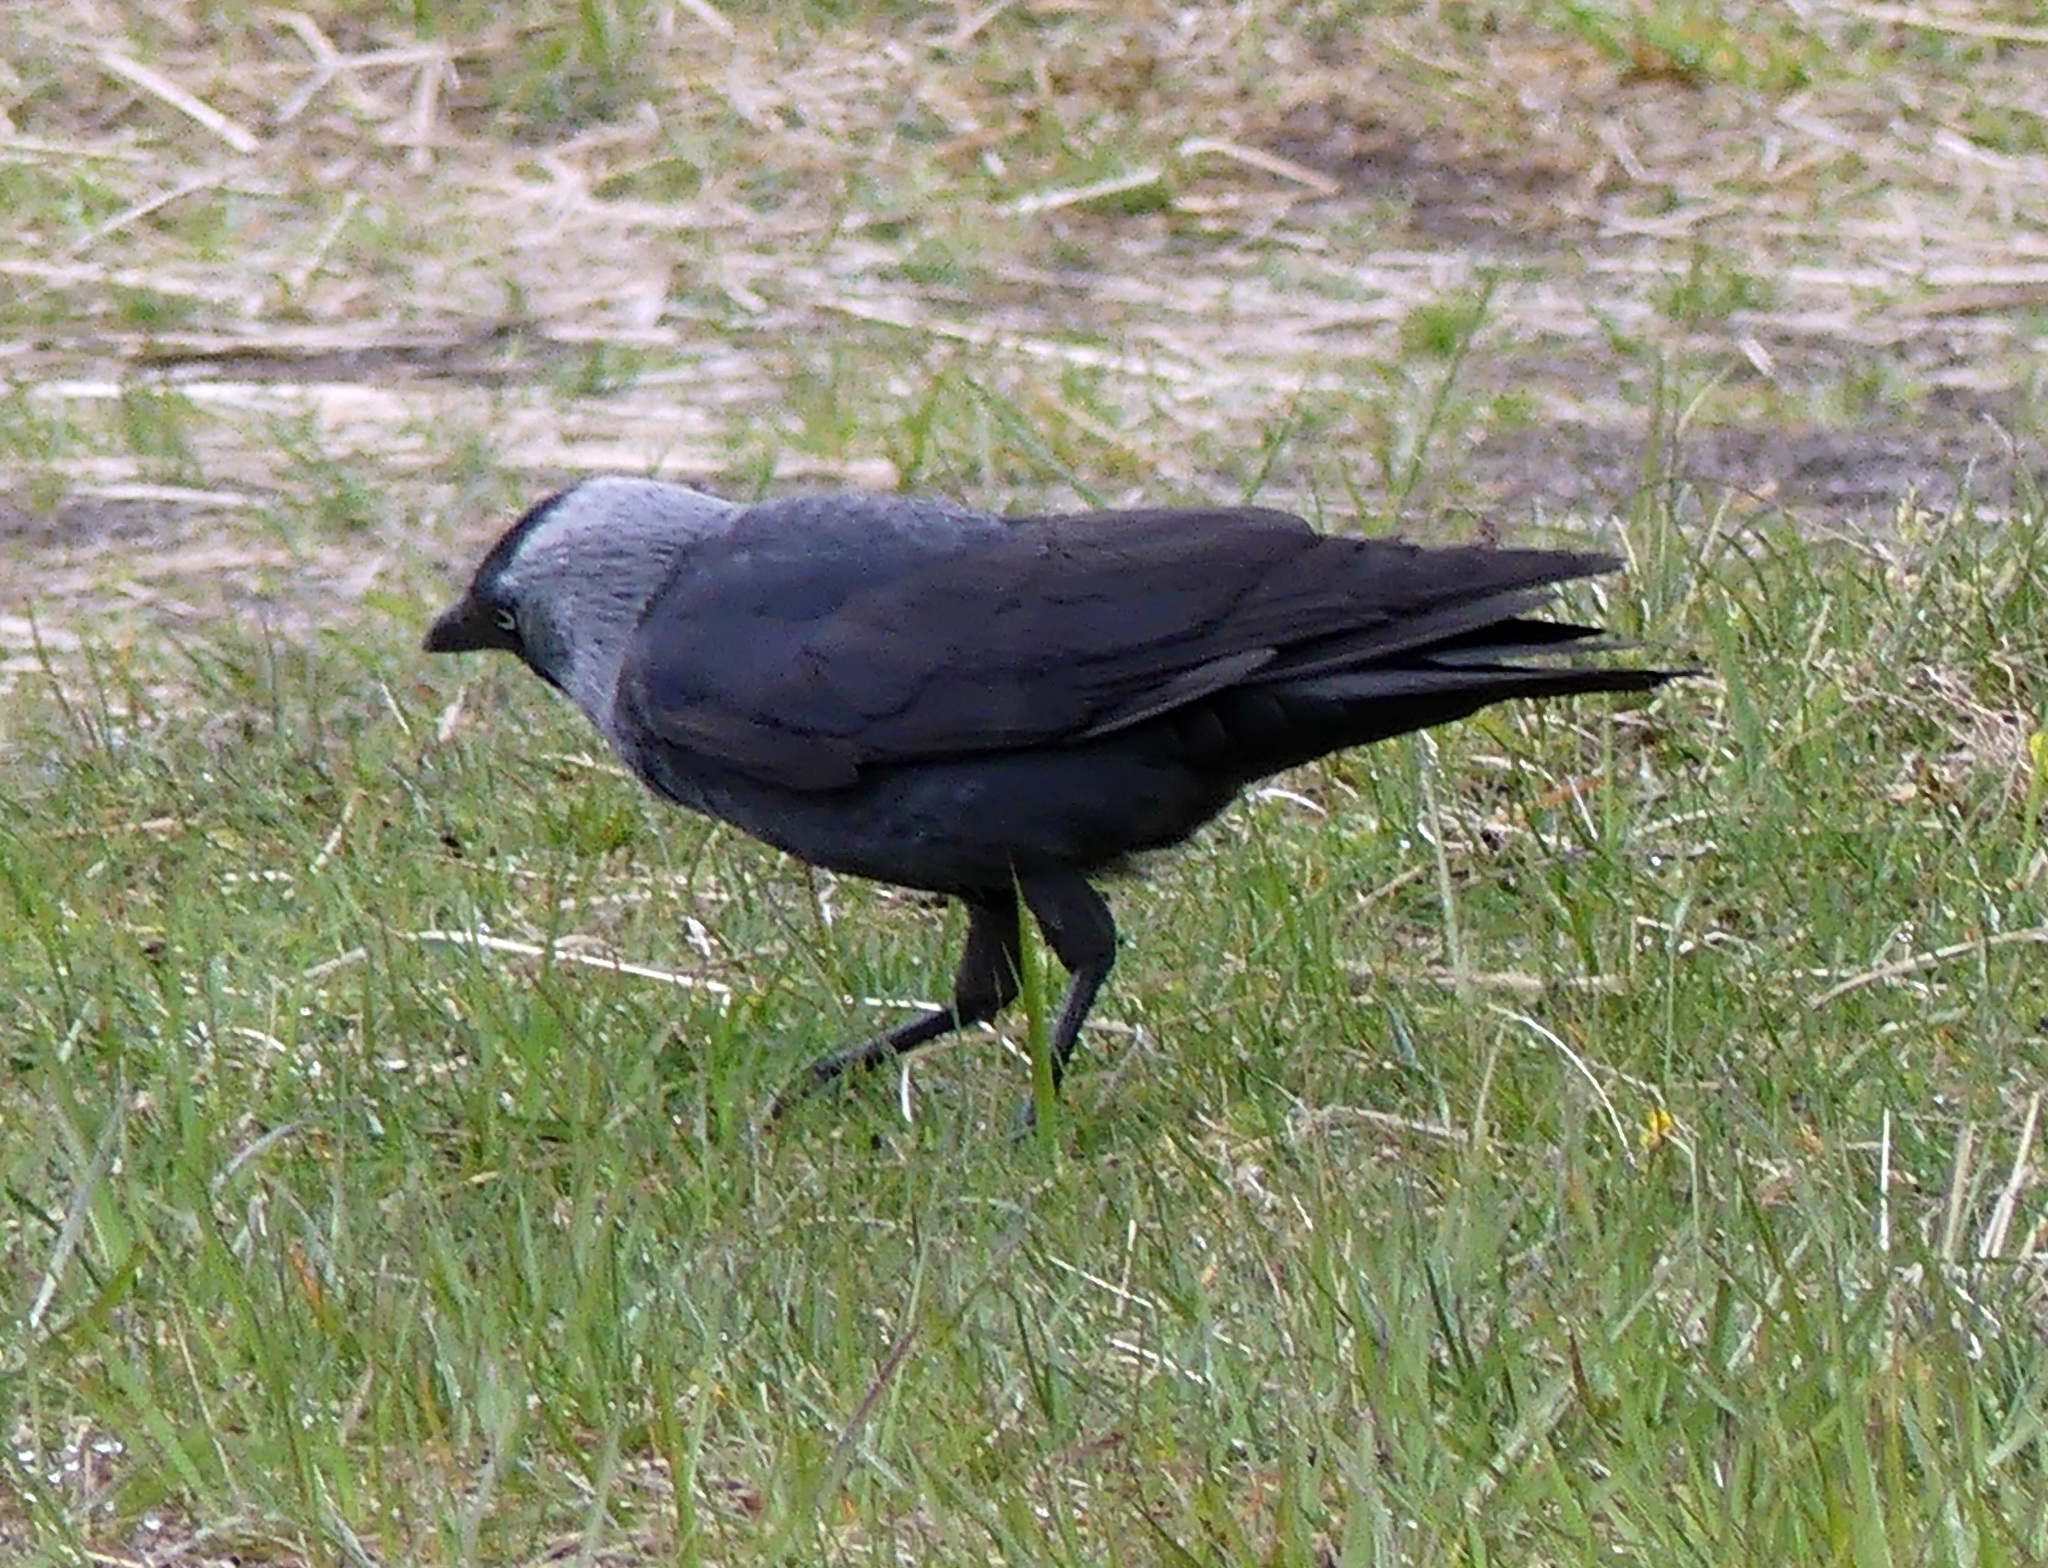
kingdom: Animalia
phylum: Chordata
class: Aves
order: Passeriformes
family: Corvidae
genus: Coloeus
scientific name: Coloeus monedula
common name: Western jackdaw
